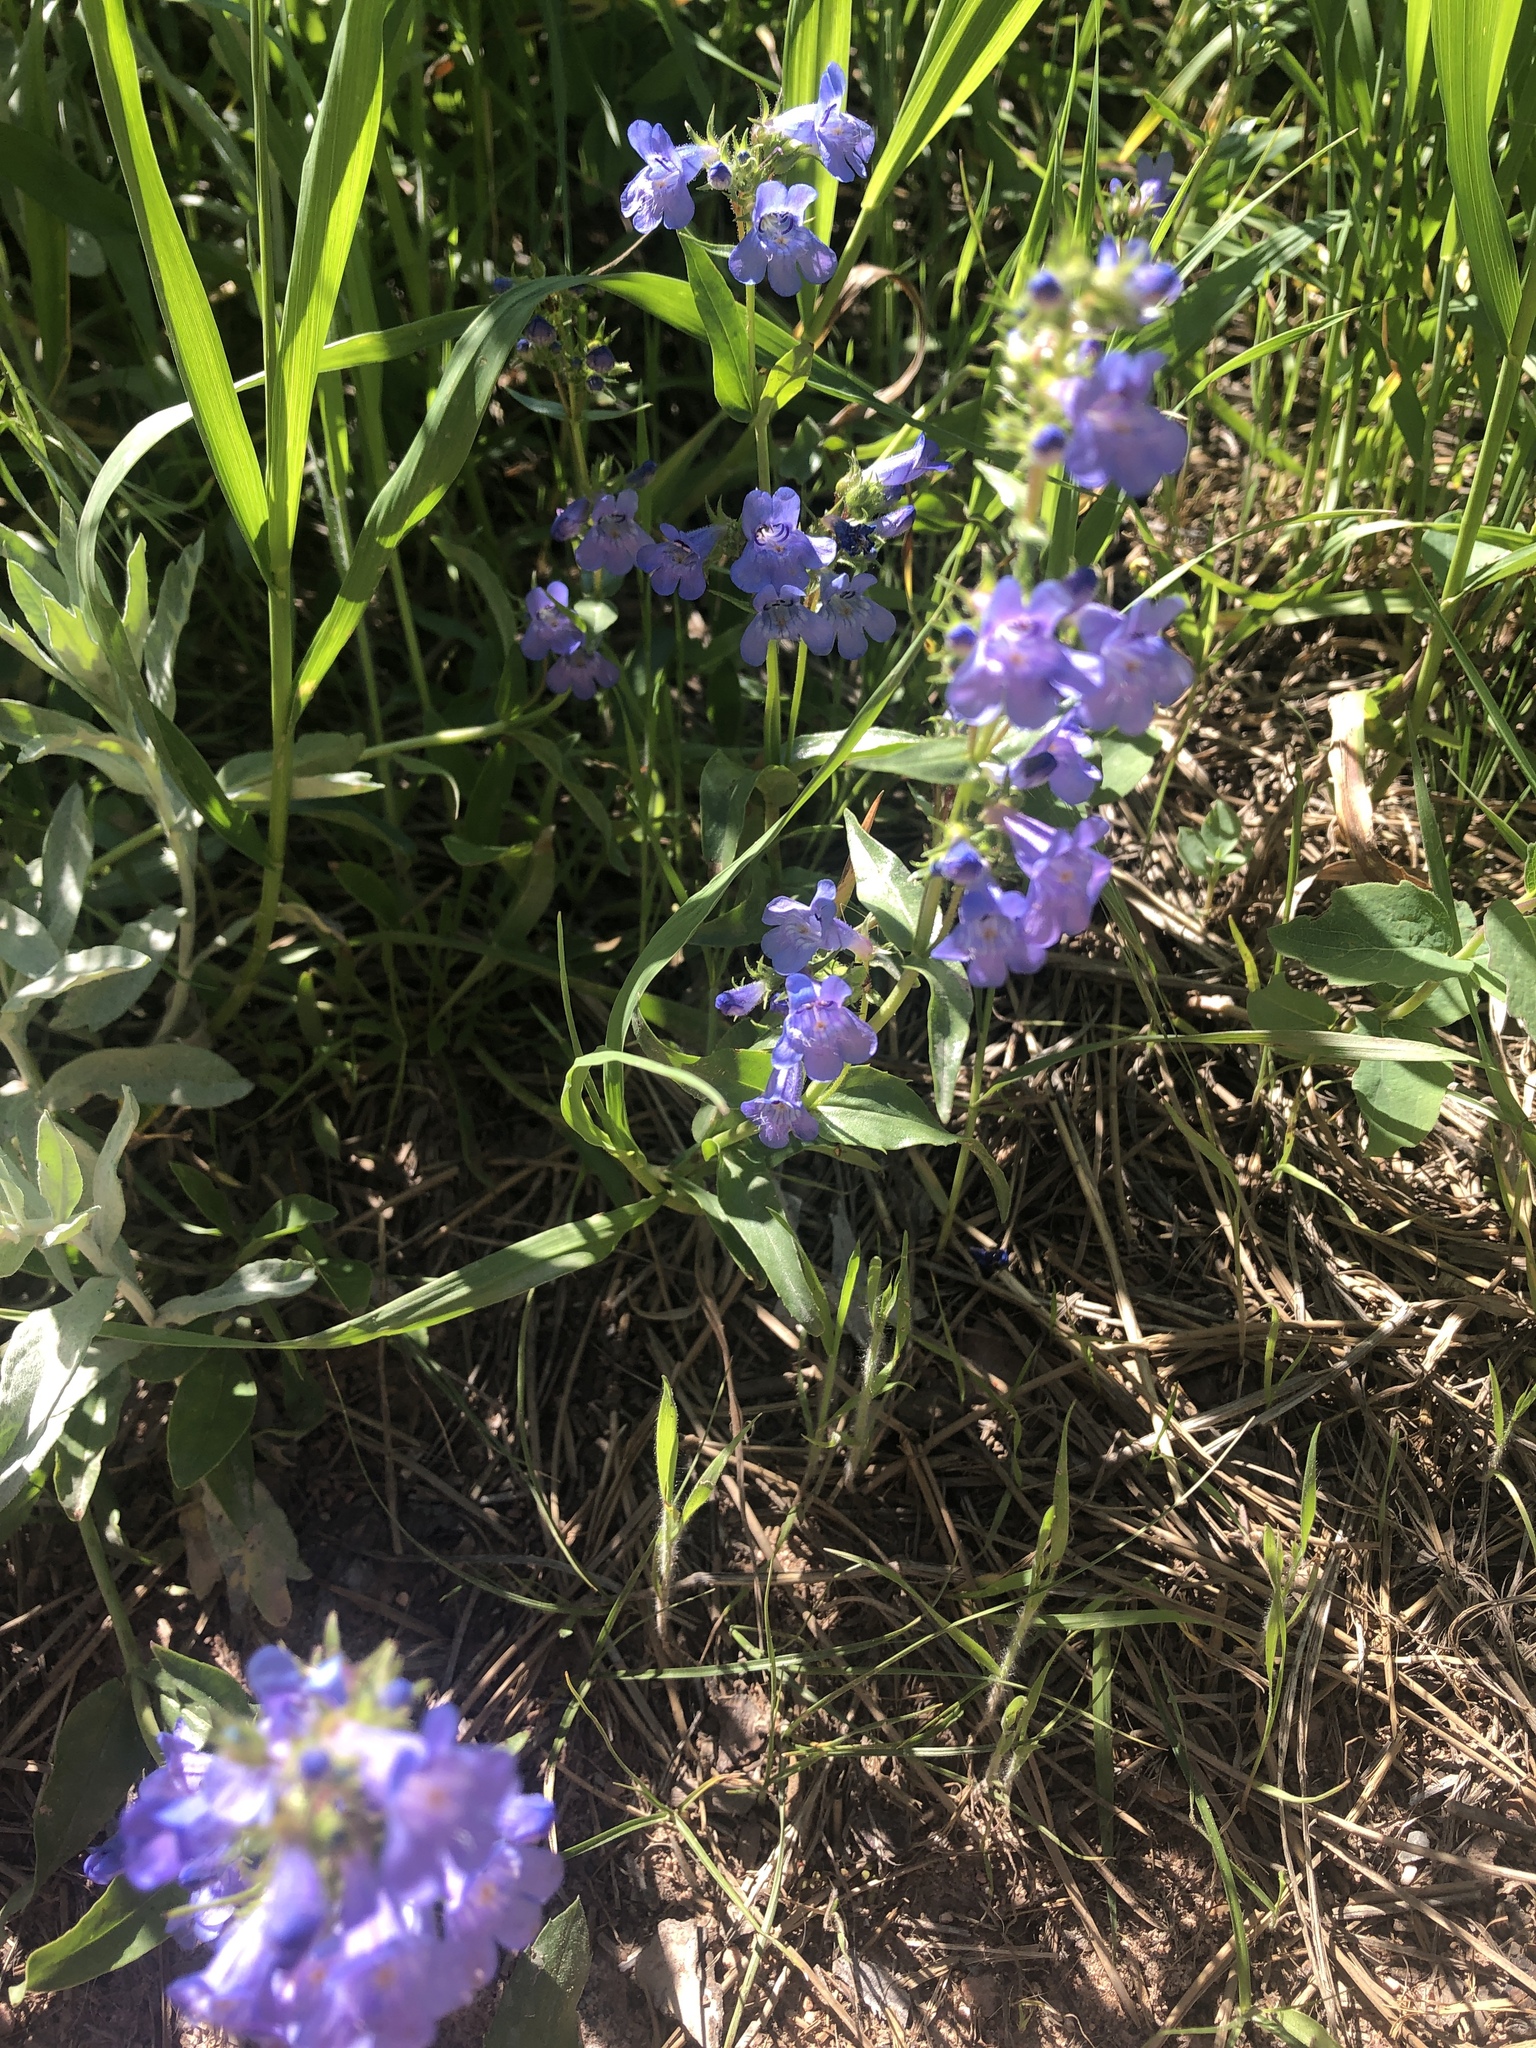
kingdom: Plantae
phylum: Tracheophyta
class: Magnoliopsida
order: Lamiales
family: Plantaginaceae
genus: Penstemon
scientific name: Penstemon virens
